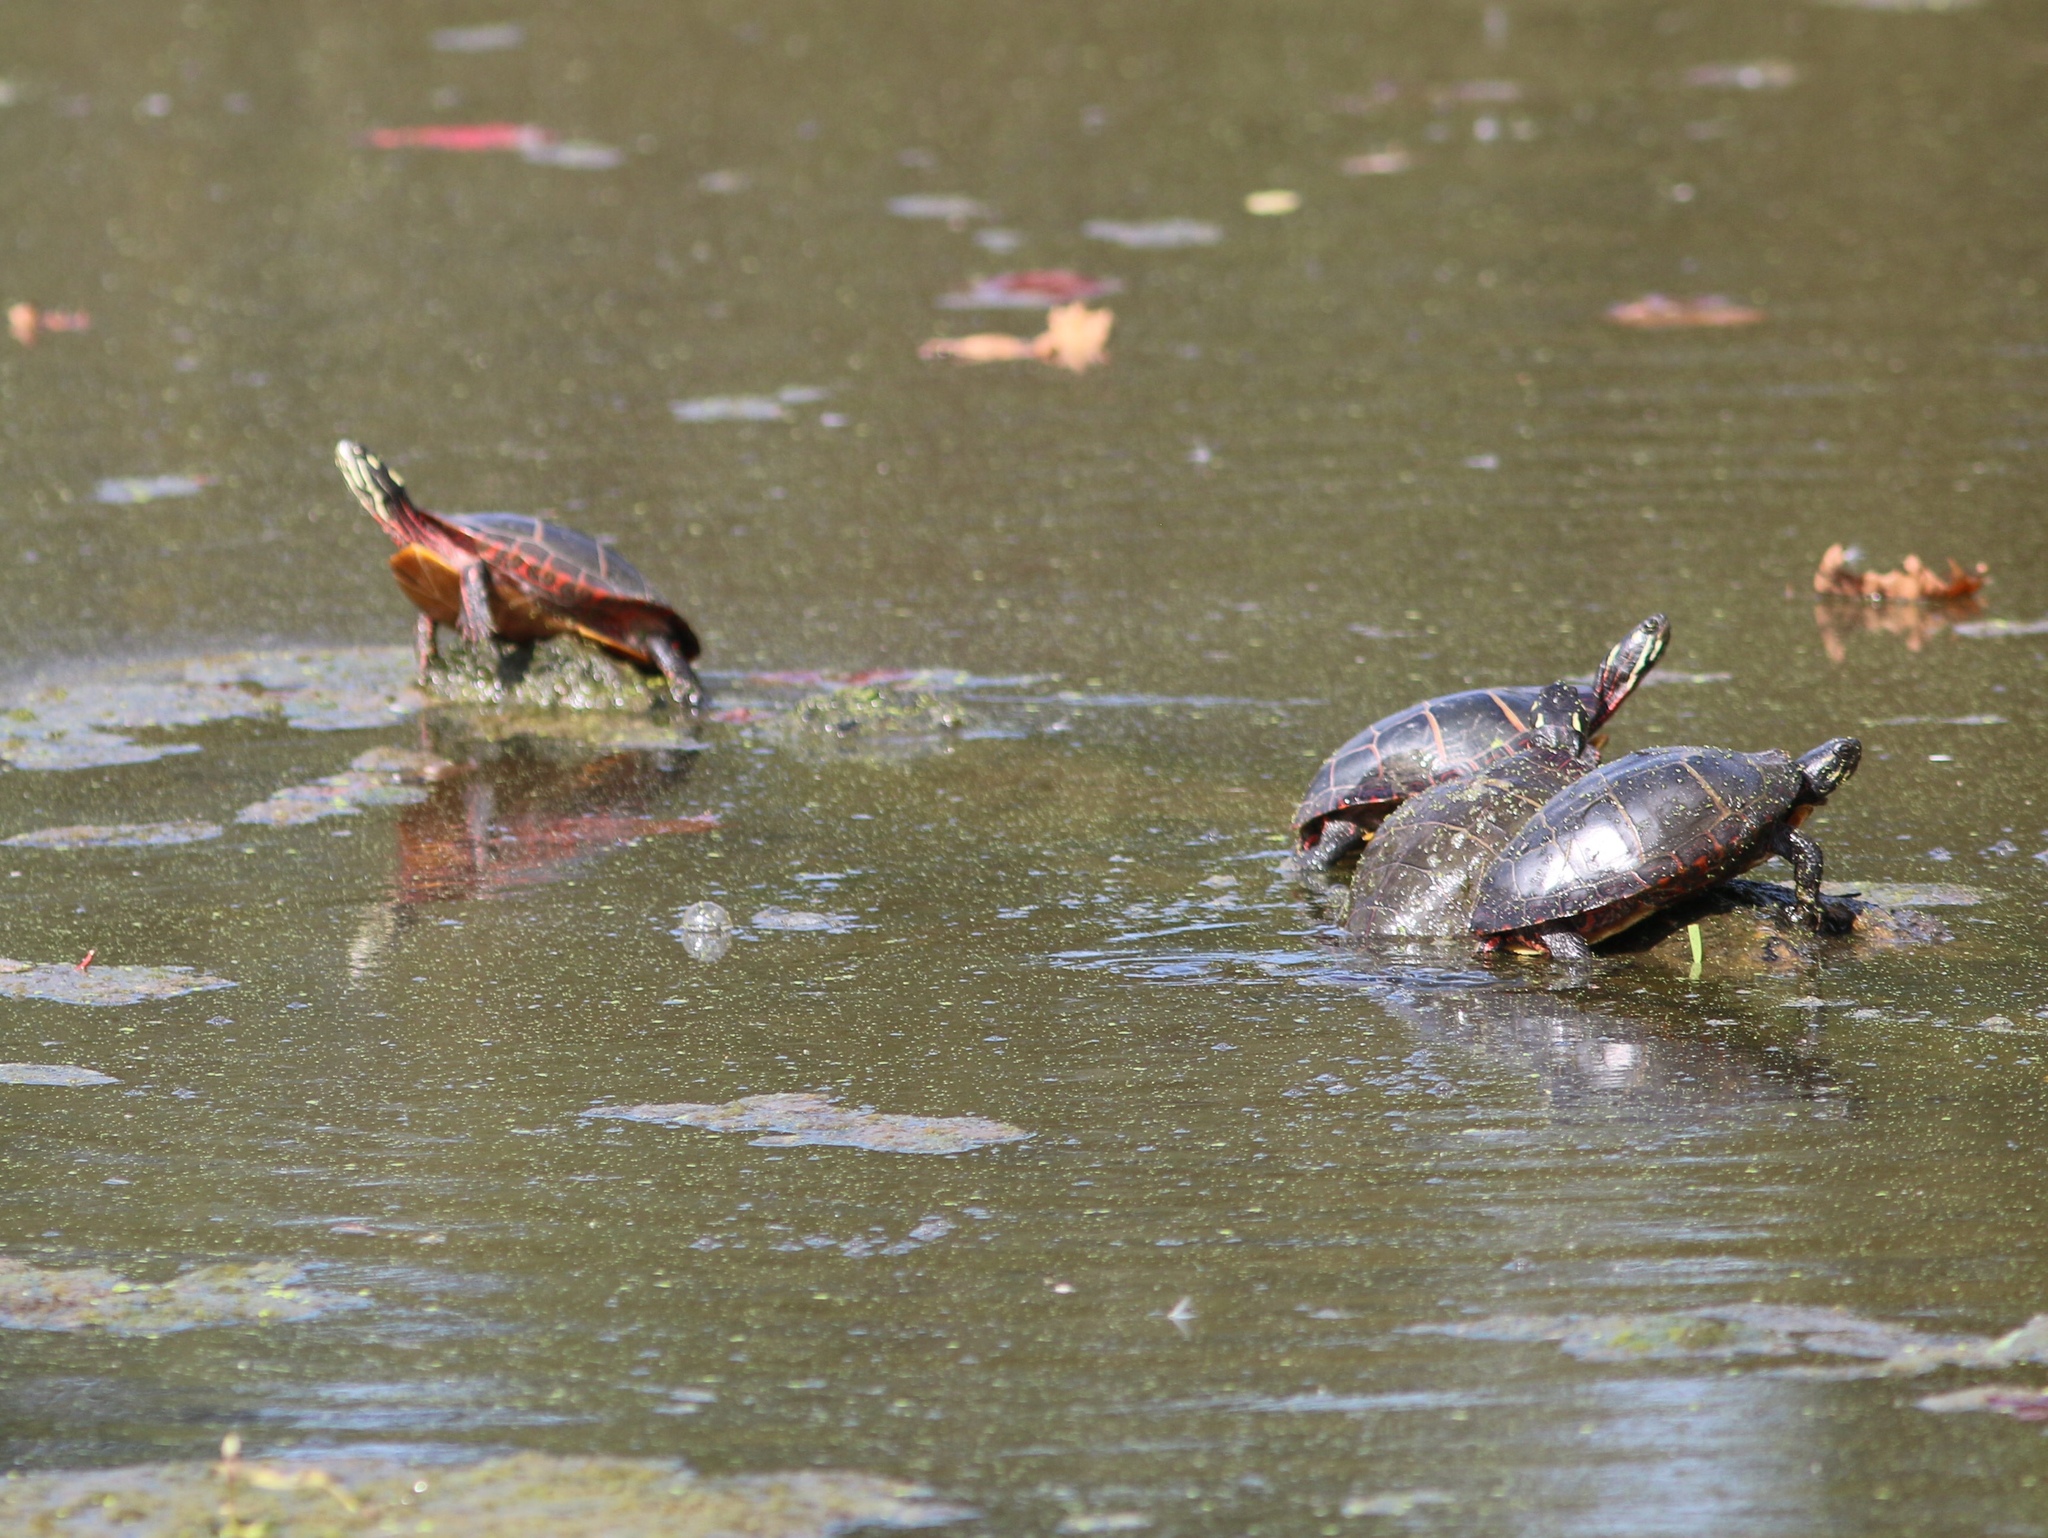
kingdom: Animalia
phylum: Chordata
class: Testudines
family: Emydidae
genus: Chrysemys
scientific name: Chrysemys picta
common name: Painted turtle
